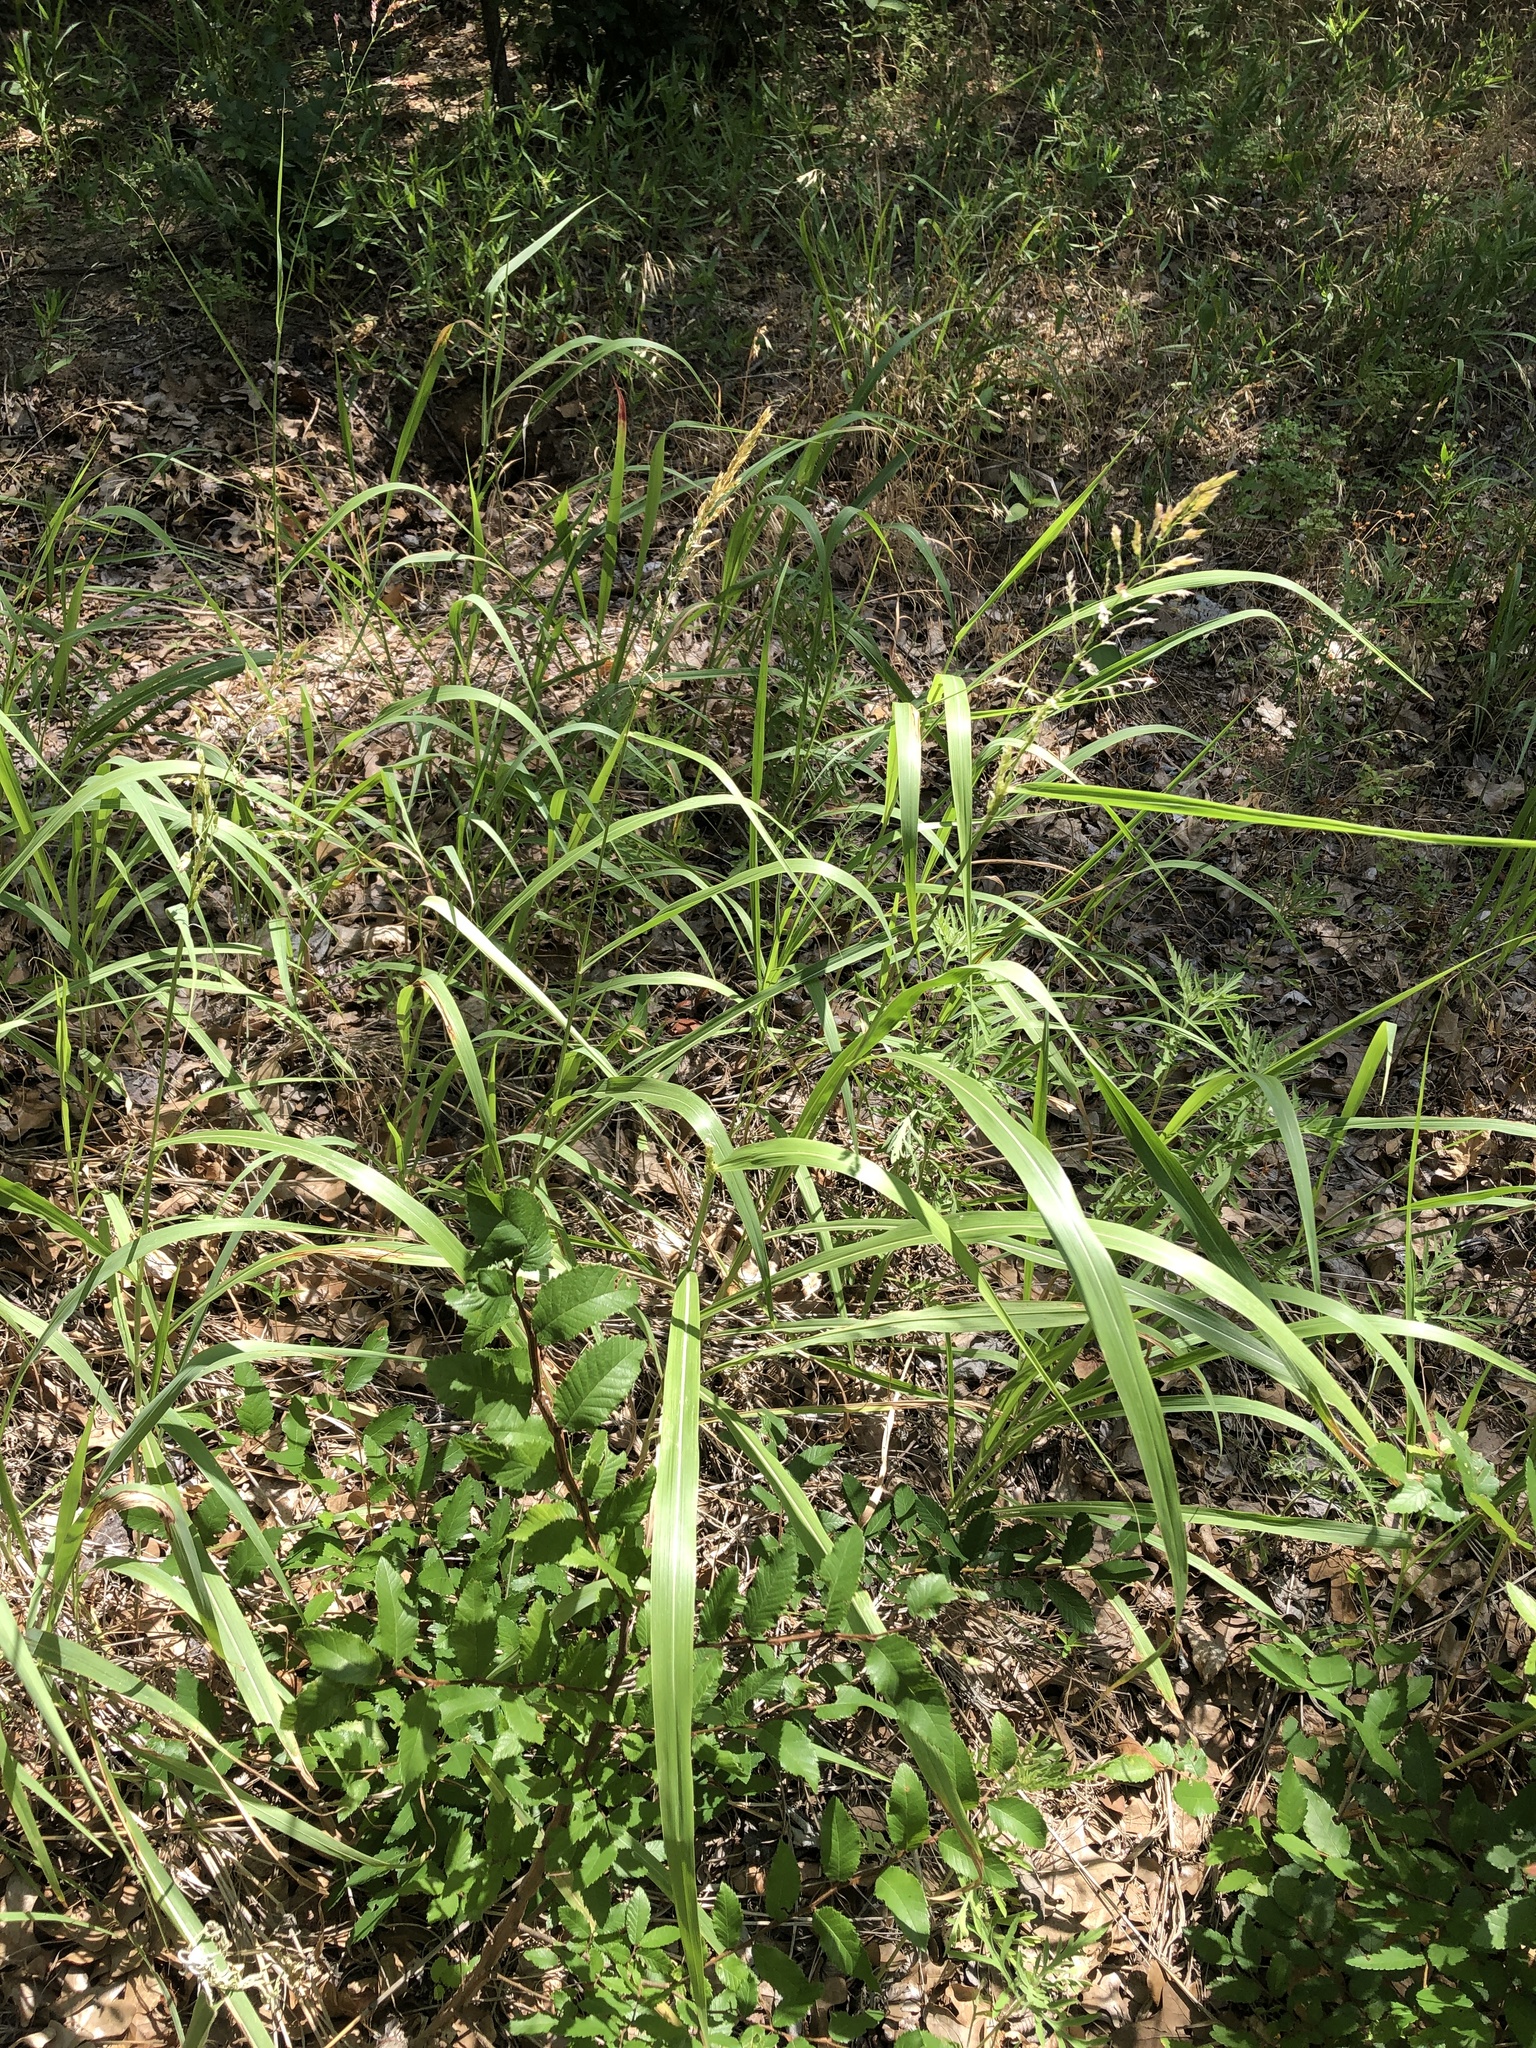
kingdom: Plantae
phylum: Tracheophyta
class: Liliopsida
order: Poales
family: Poaceae
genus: Sorghum
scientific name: Sorghum halepense
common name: Johnson-grass
